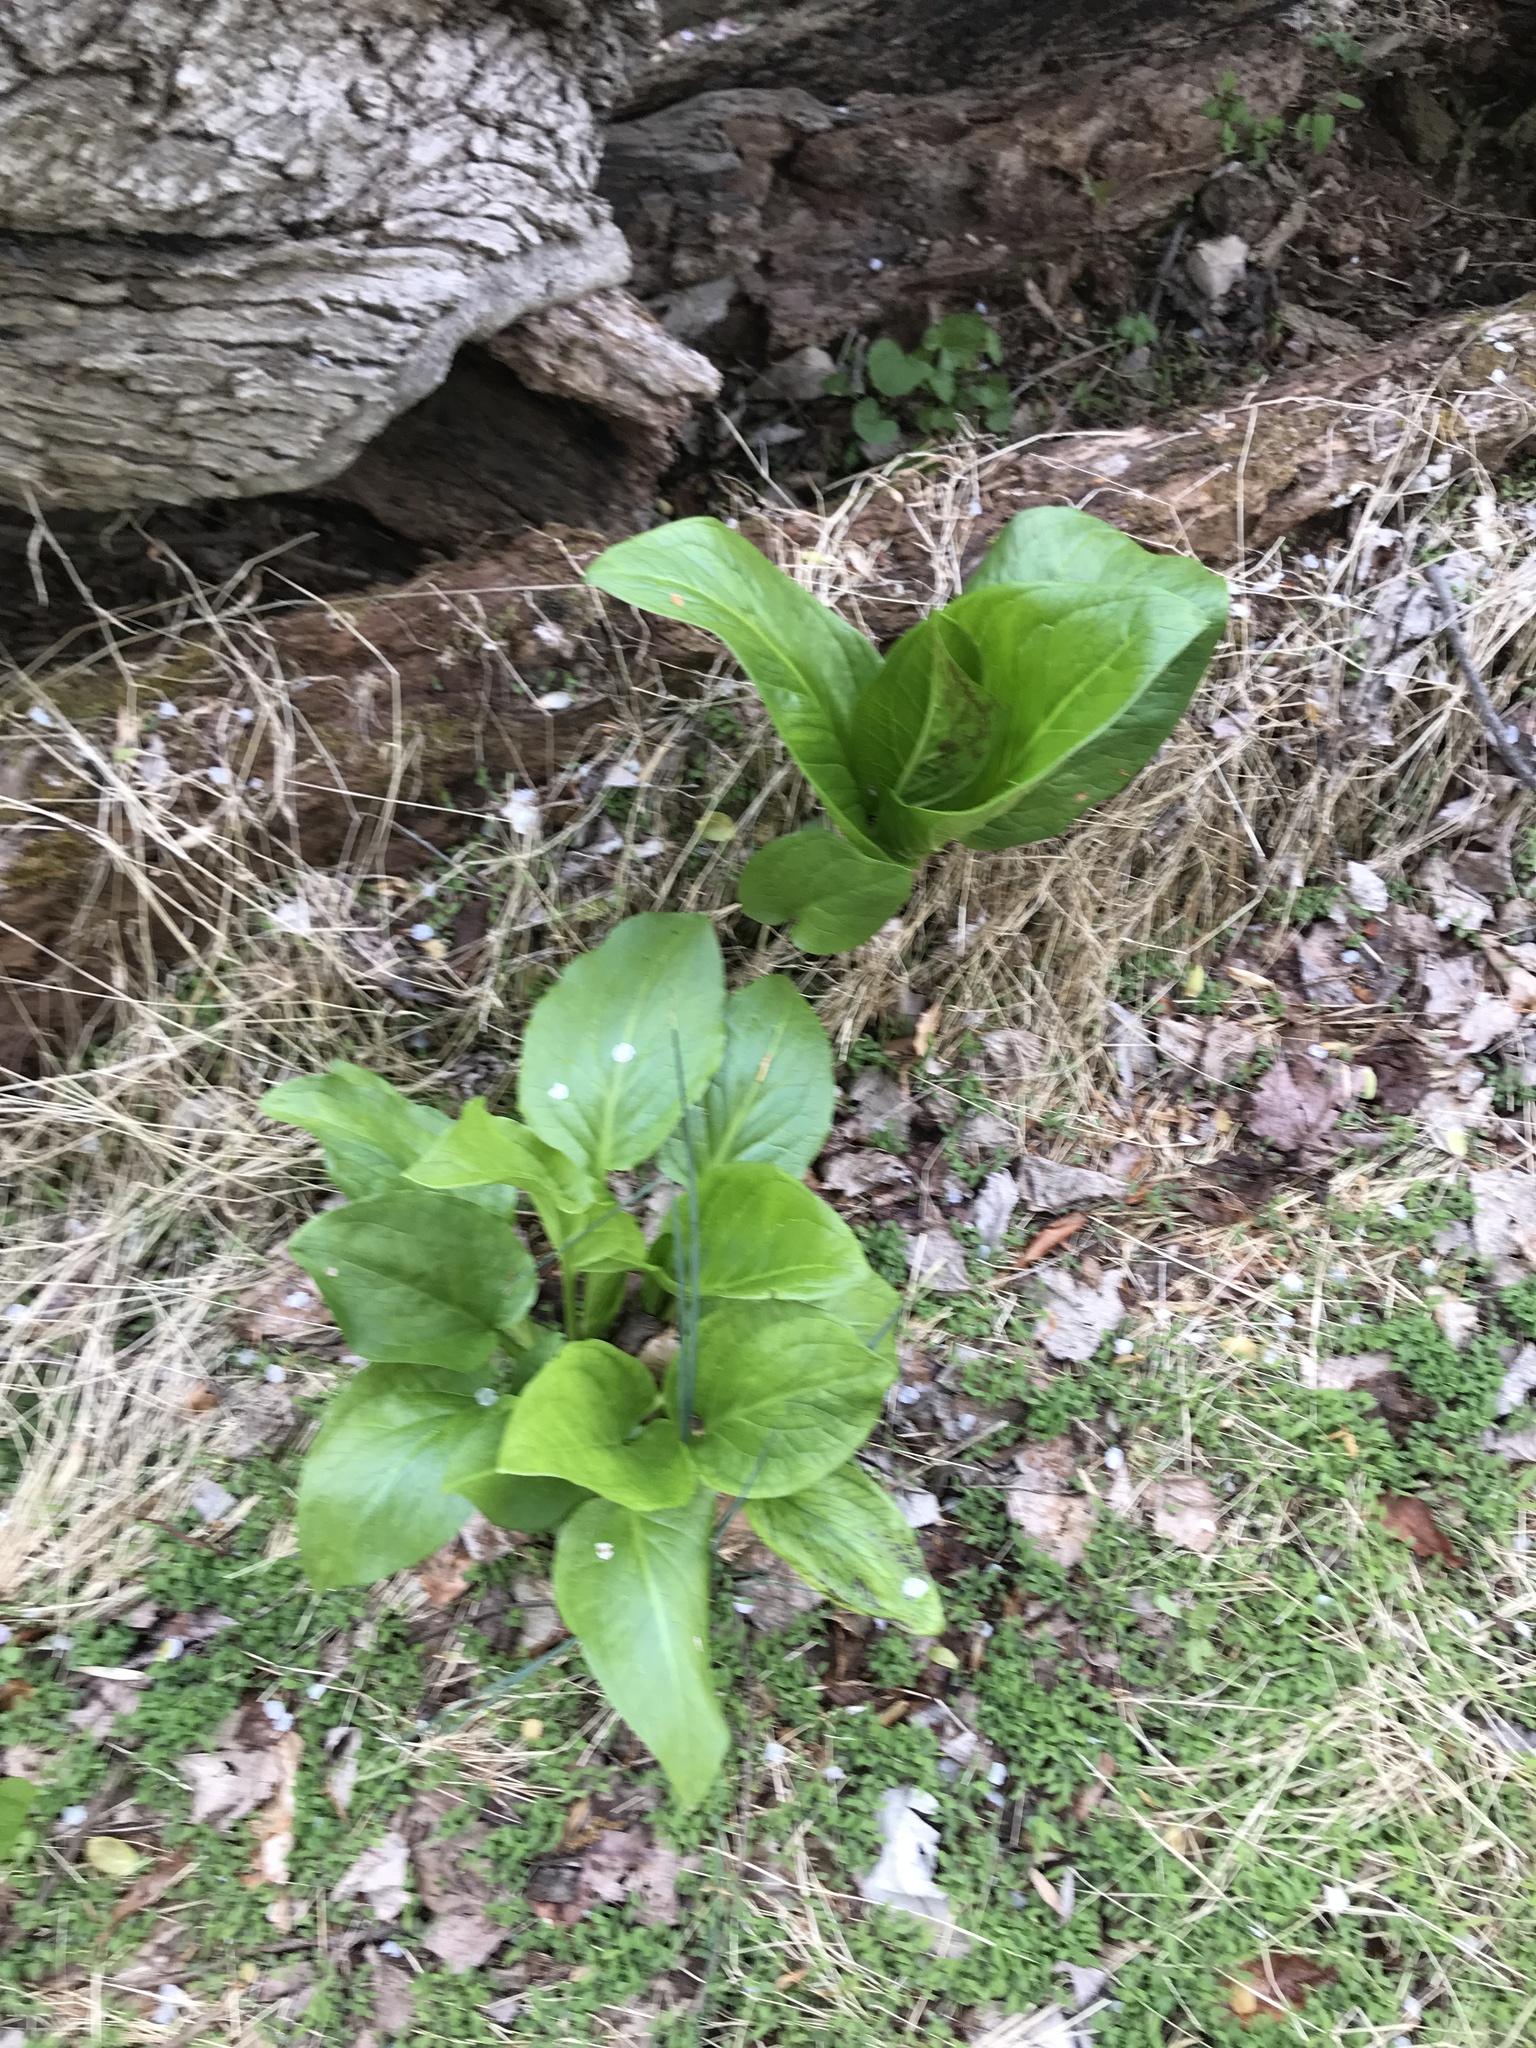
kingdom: Plantae
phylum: Tracheophyta
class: Liliopsida
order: Alismatales
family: Araceae
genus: Symplocarpus
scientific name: Symplocarpus foetidus
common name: Eastern skunk cabbage
